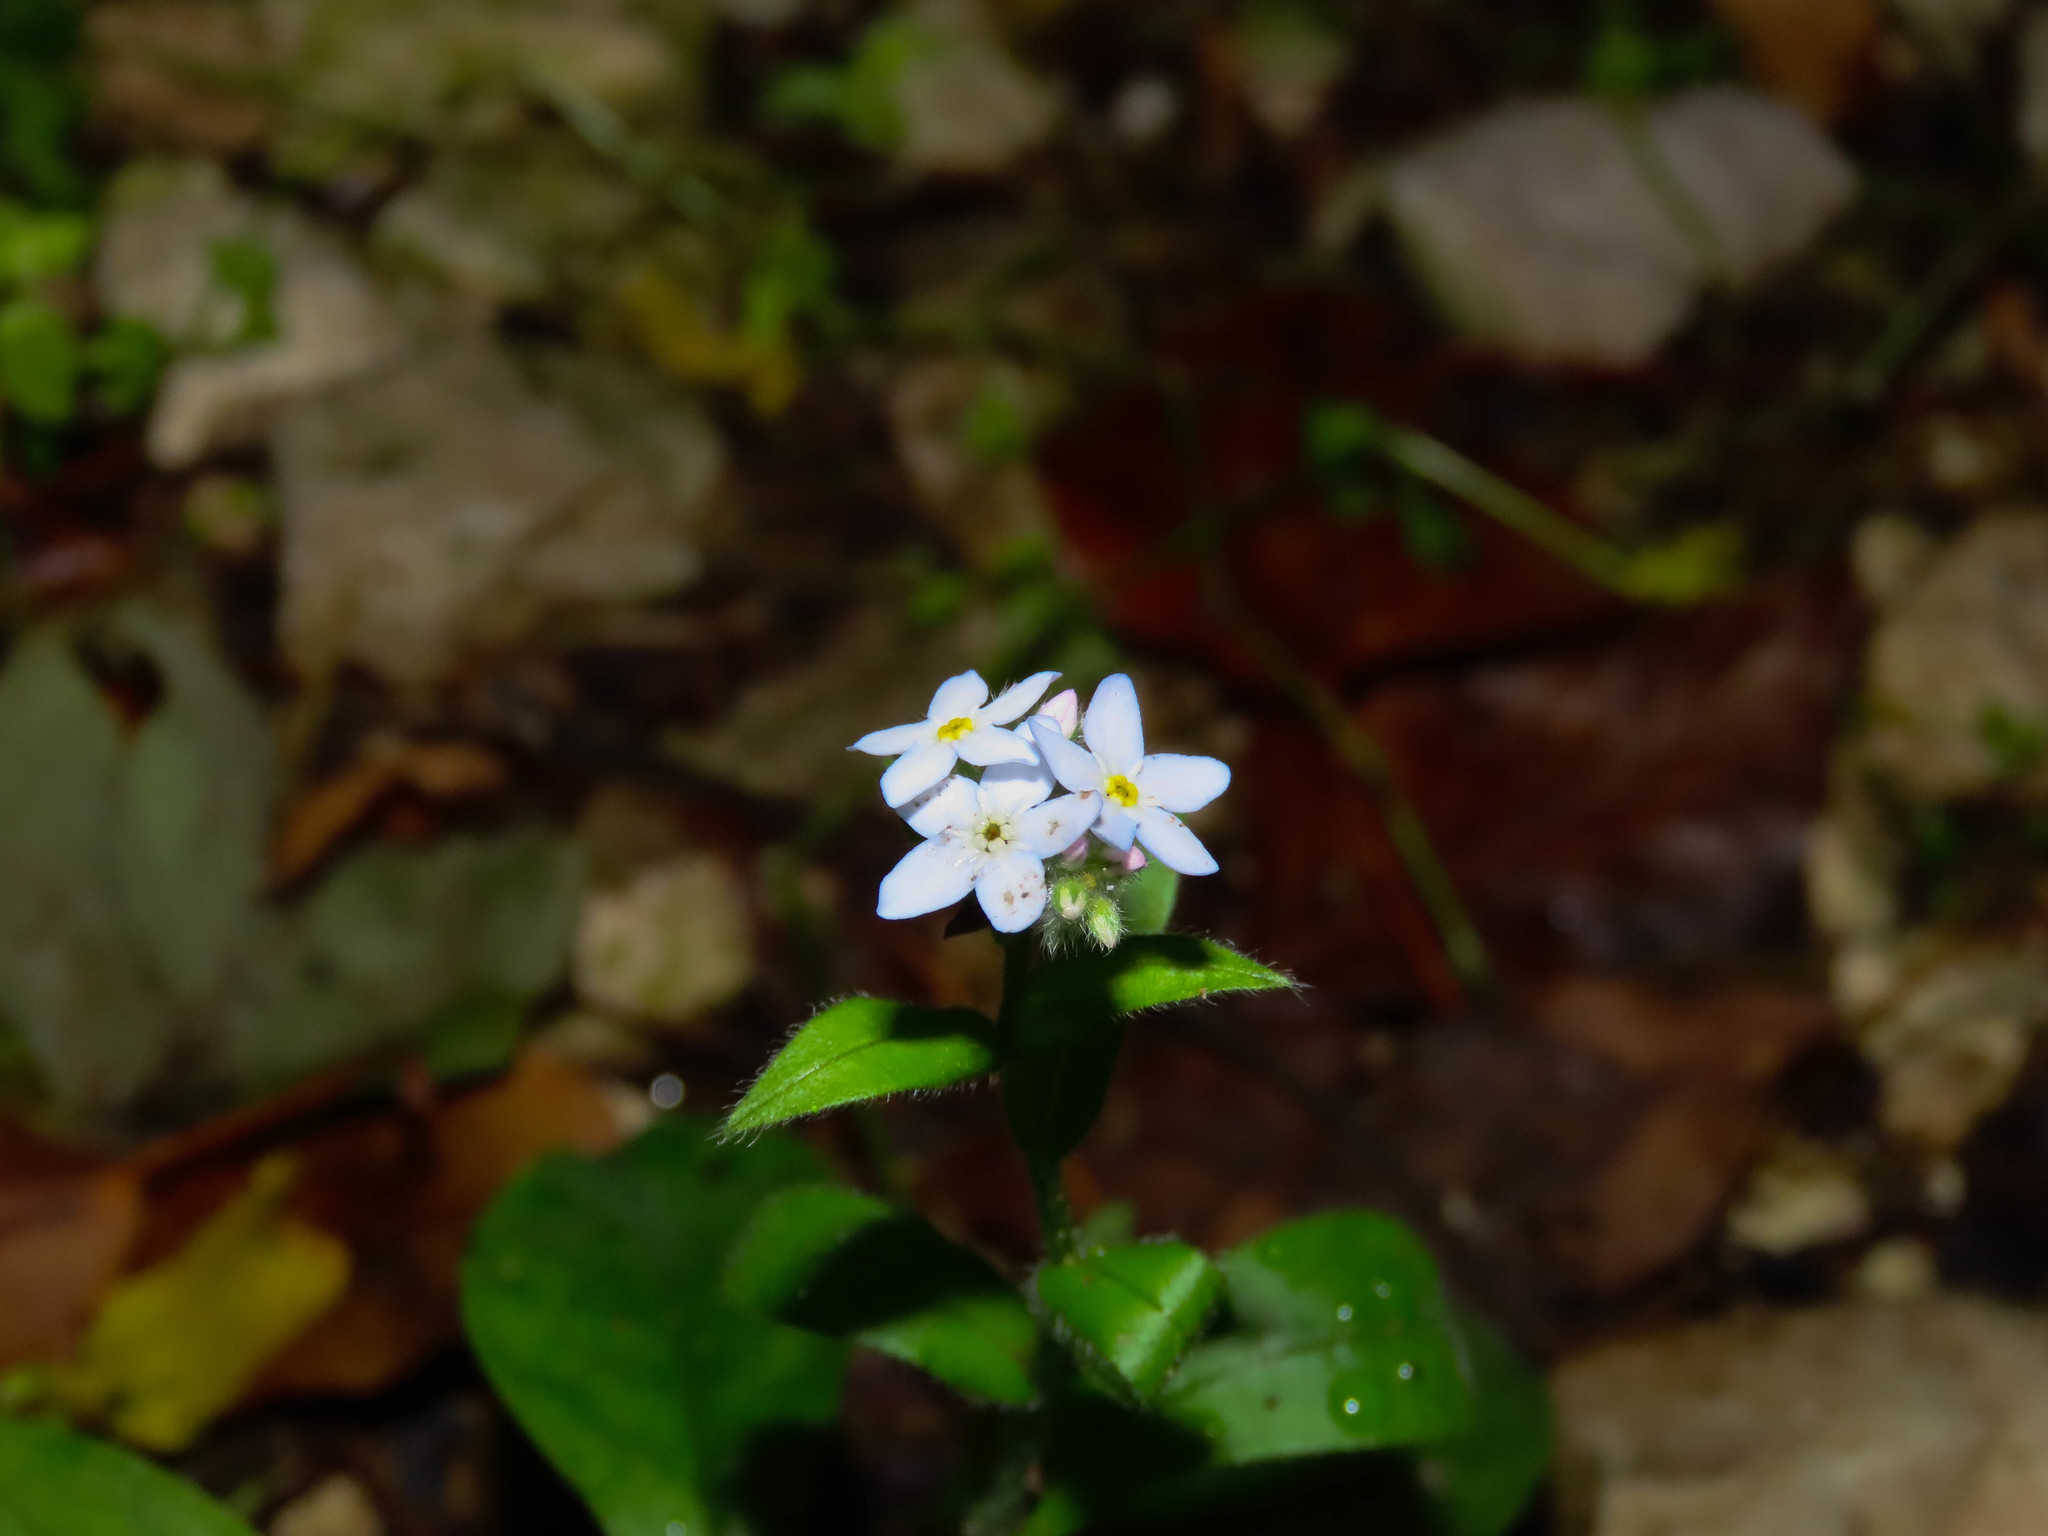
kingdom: Plantae
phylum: Tracheophyta
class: Magnoliopsida
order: Boraginales
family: Boraginaceae
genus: Myosotis
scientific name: Myosotis sylvatica
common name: Wood forget-me-not
